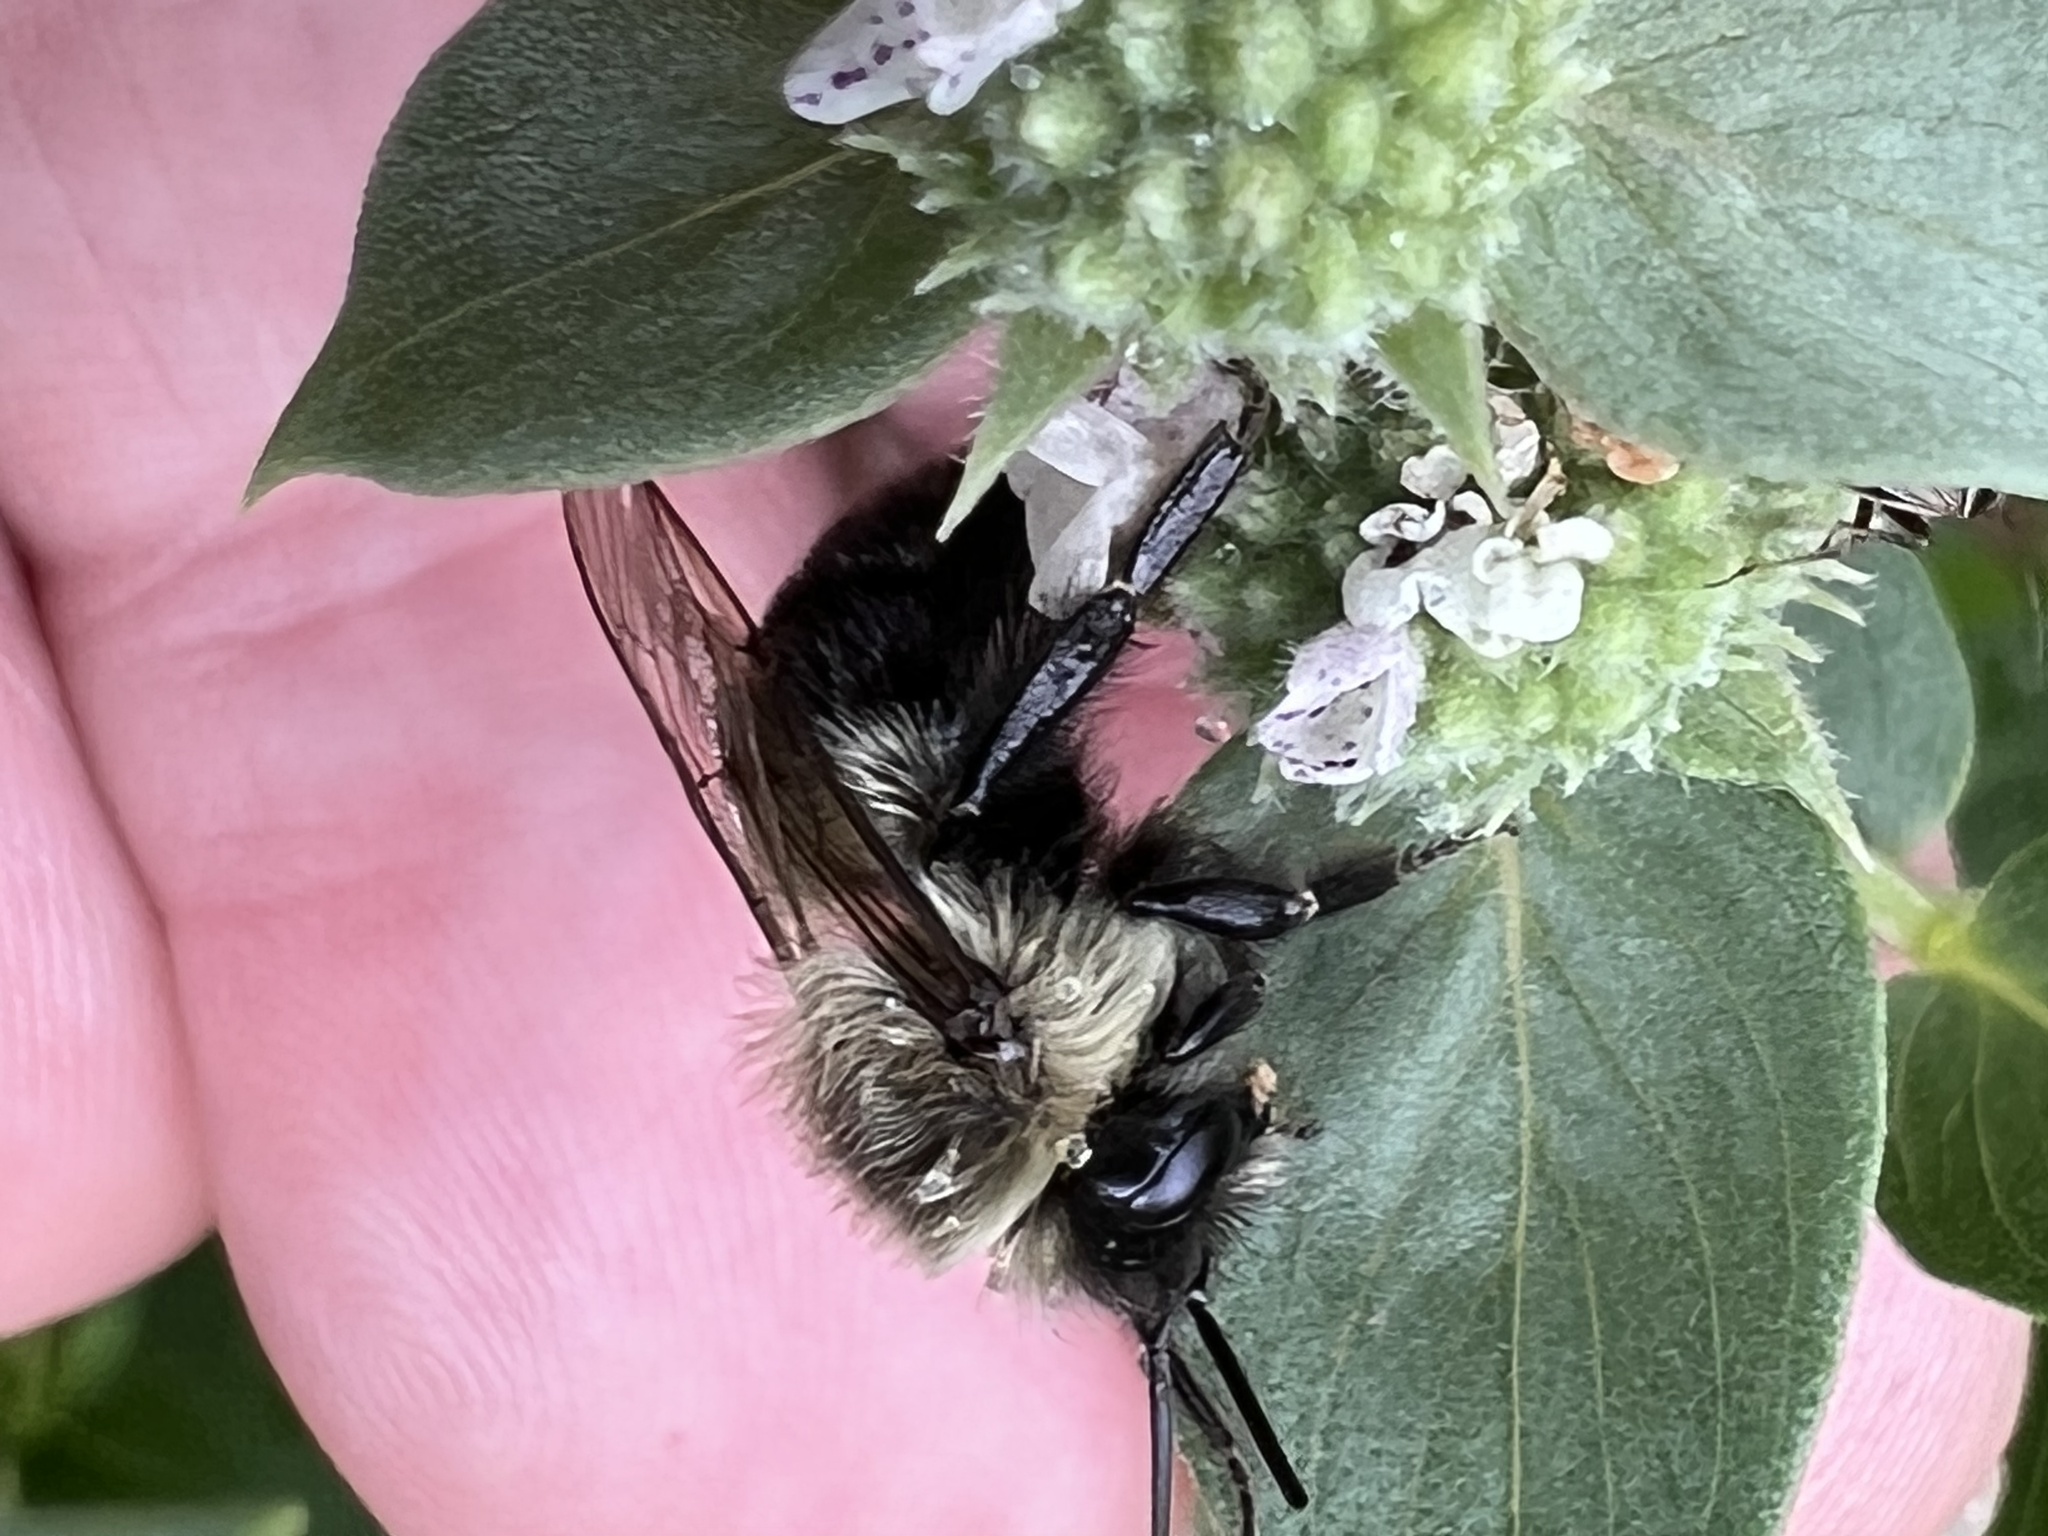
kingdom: Animalia
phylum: Arthropoda
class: Insecta
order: Hymenoptera
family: Apidae
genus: Bombus
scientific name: Bombus impatiens
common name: Common eastern bumble bee
